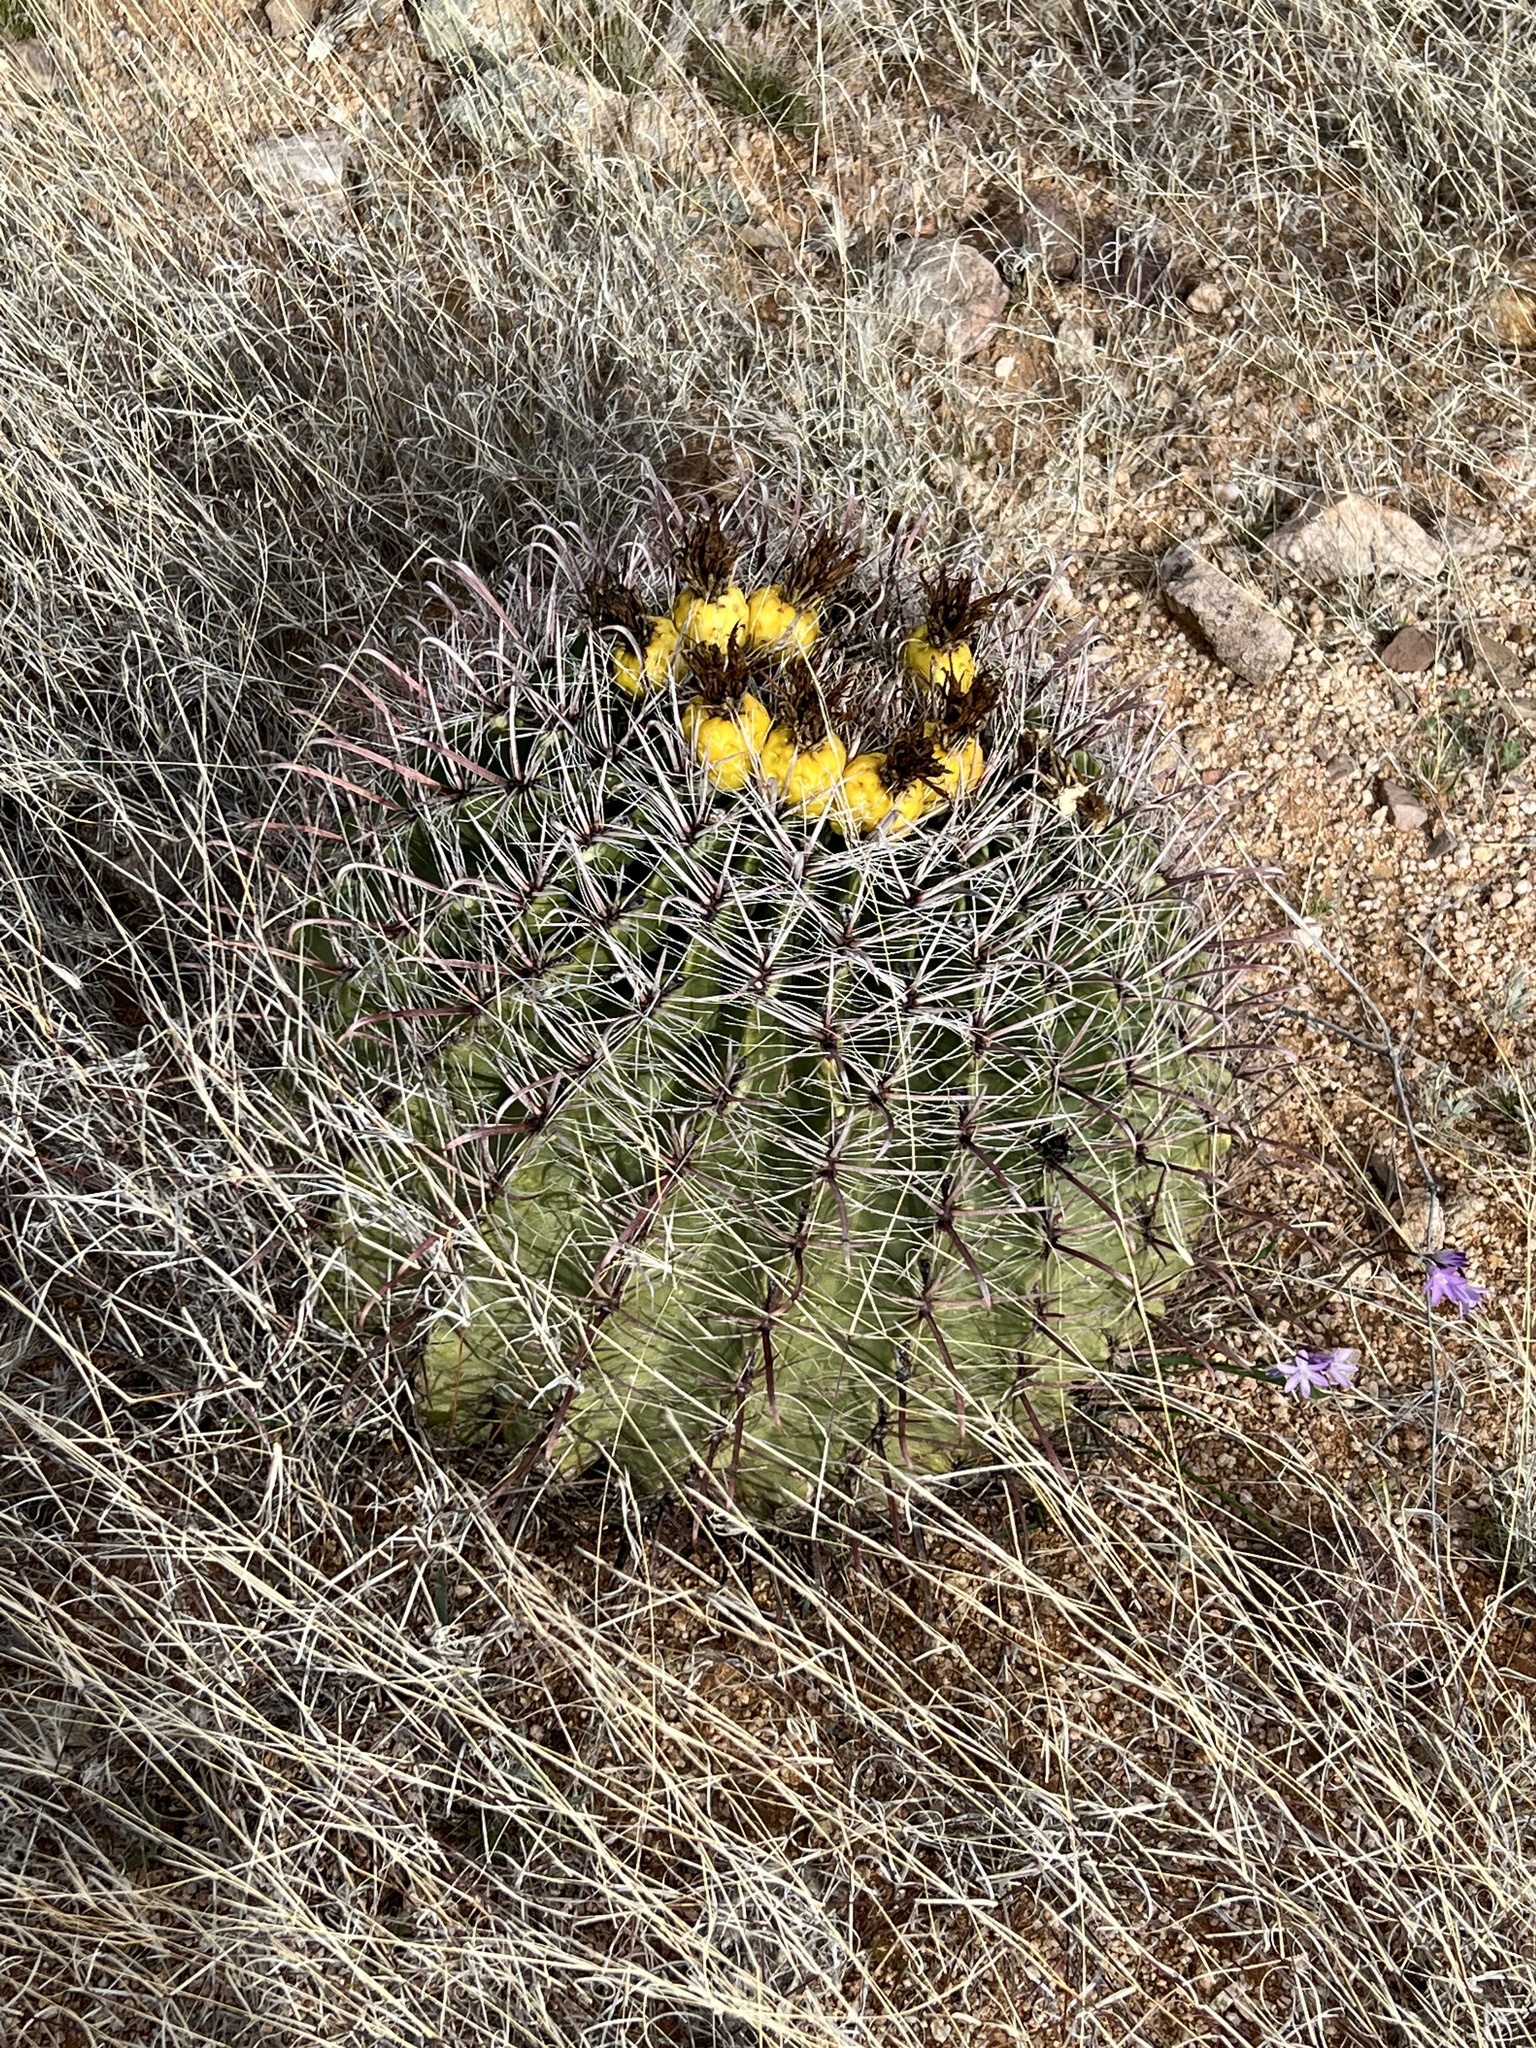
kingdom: Plantae
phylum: Tracheophyta
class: Magnoliopsida
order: Caryophyllales
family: Cactaceae
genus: Ferocactus
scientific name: Ferocactus wislizeni
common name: Candy barrel cactus
